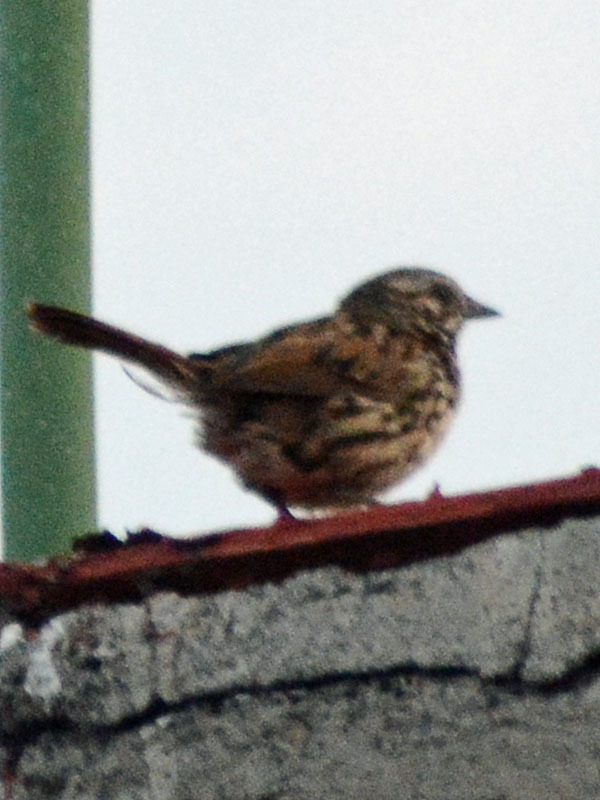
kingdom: Animalia
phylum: Chordata
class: Aves
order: Passeriformes
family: Passerellidae
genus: Melospiza
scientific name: Melospiza melodia
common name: Song sparrow
